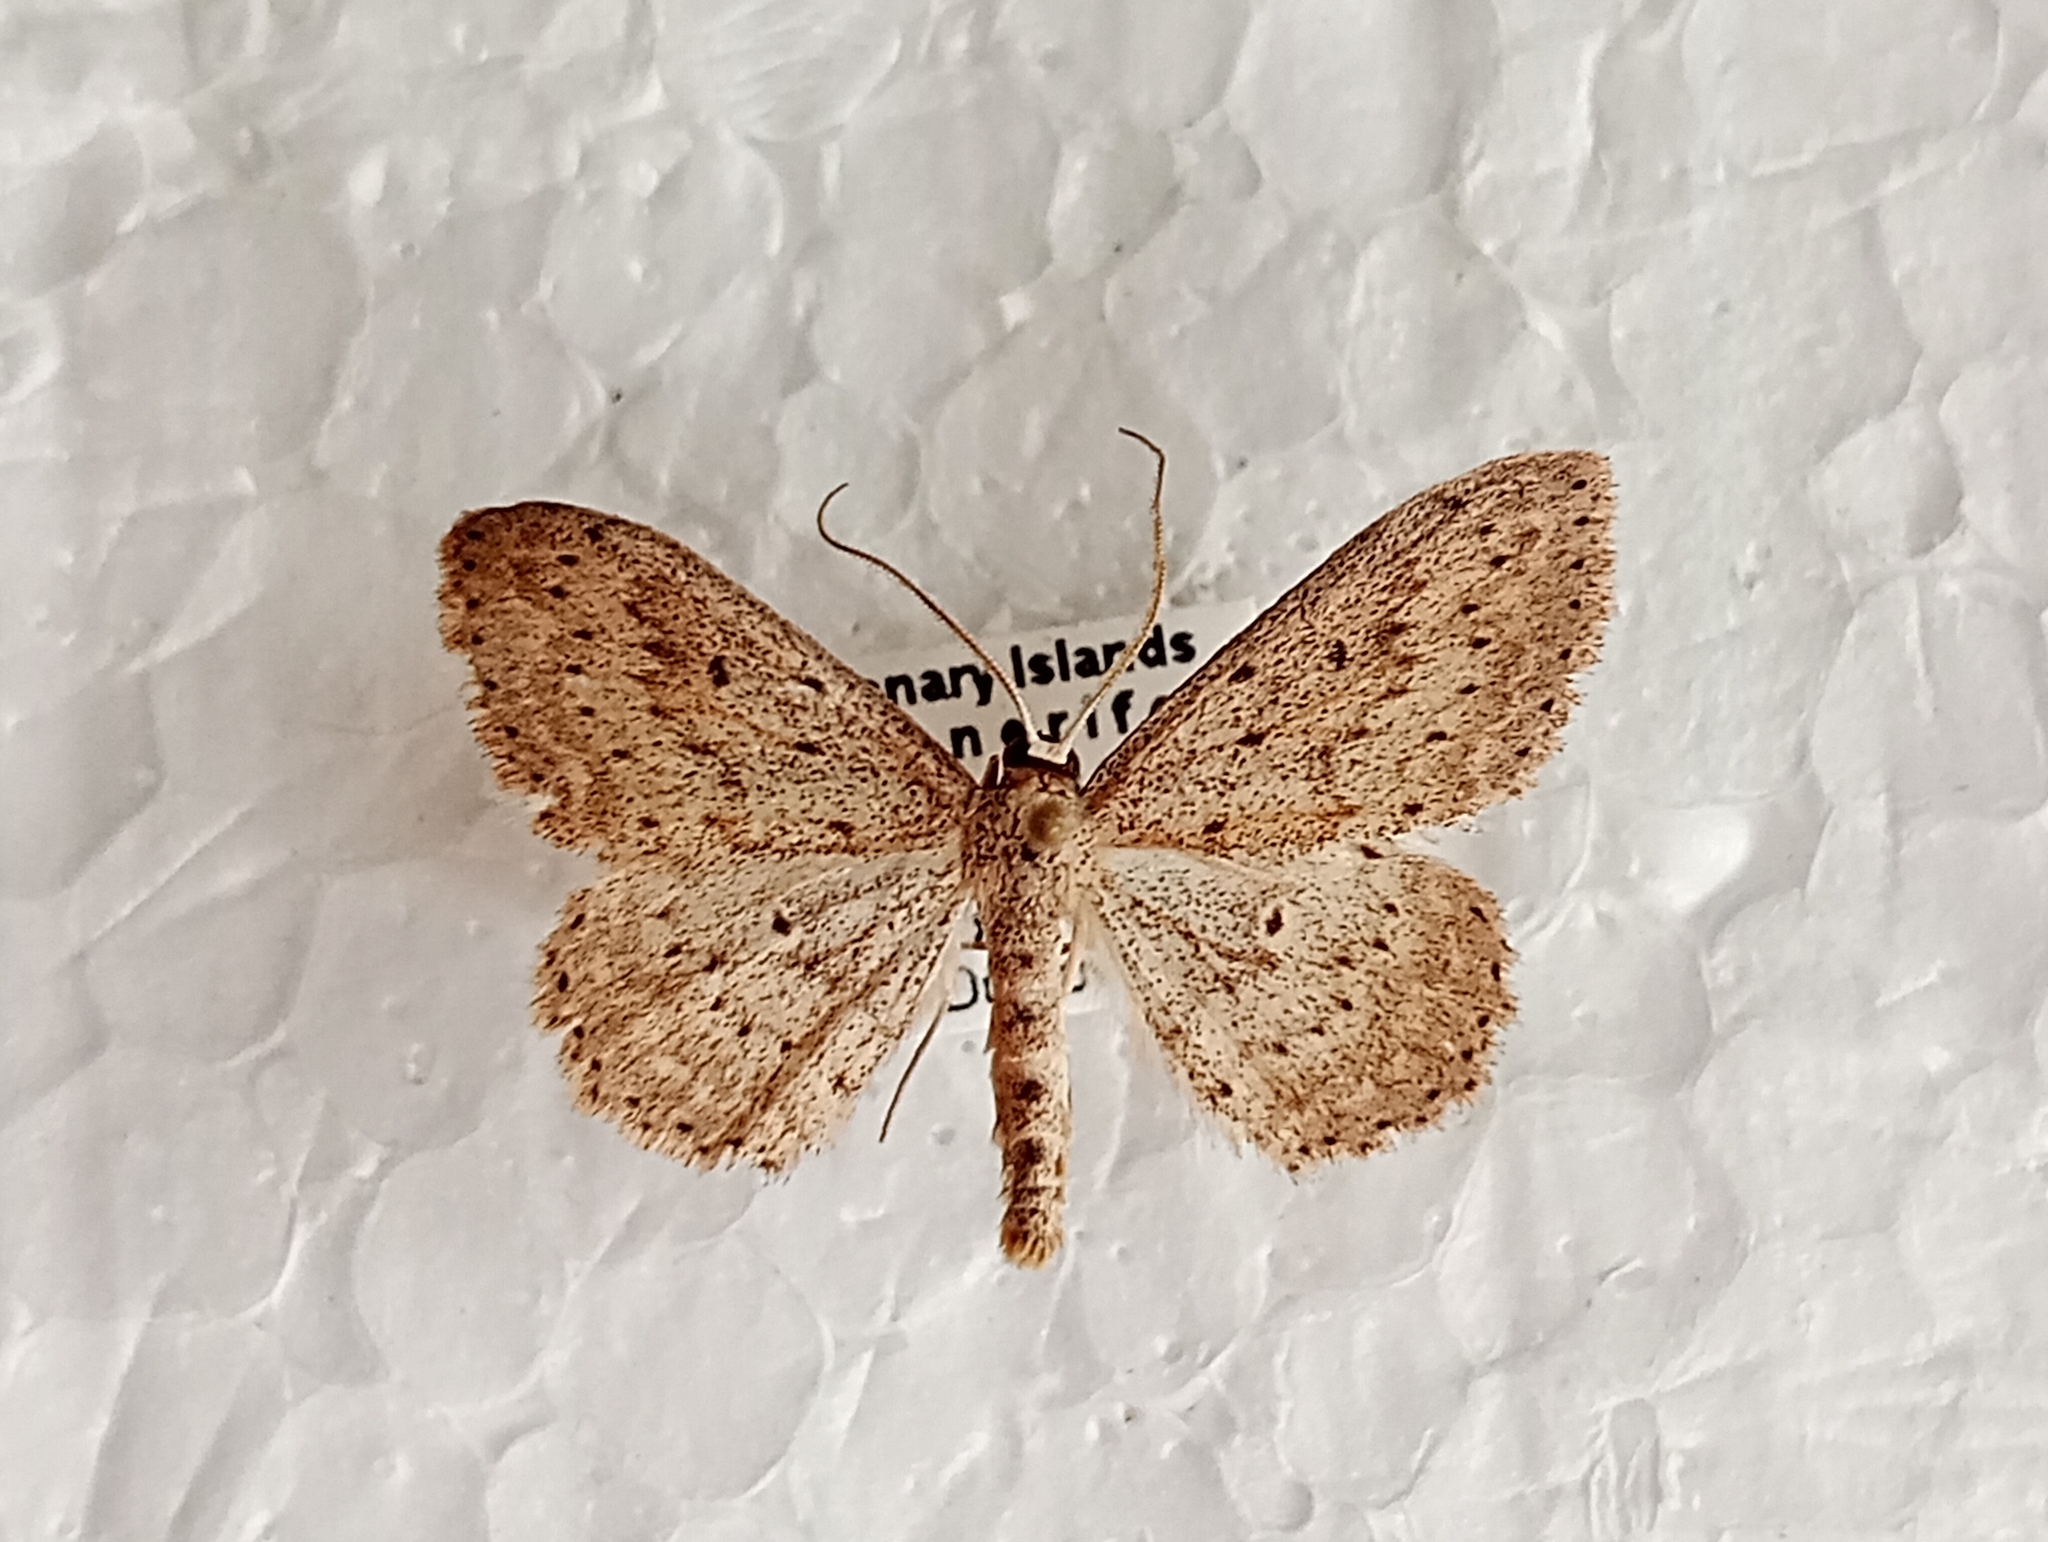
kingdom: Animalia
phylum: Arthropoda
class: Insecta
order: Lepidoptera
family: Geometridae
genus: Scopula
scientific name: Scopula guancharia
